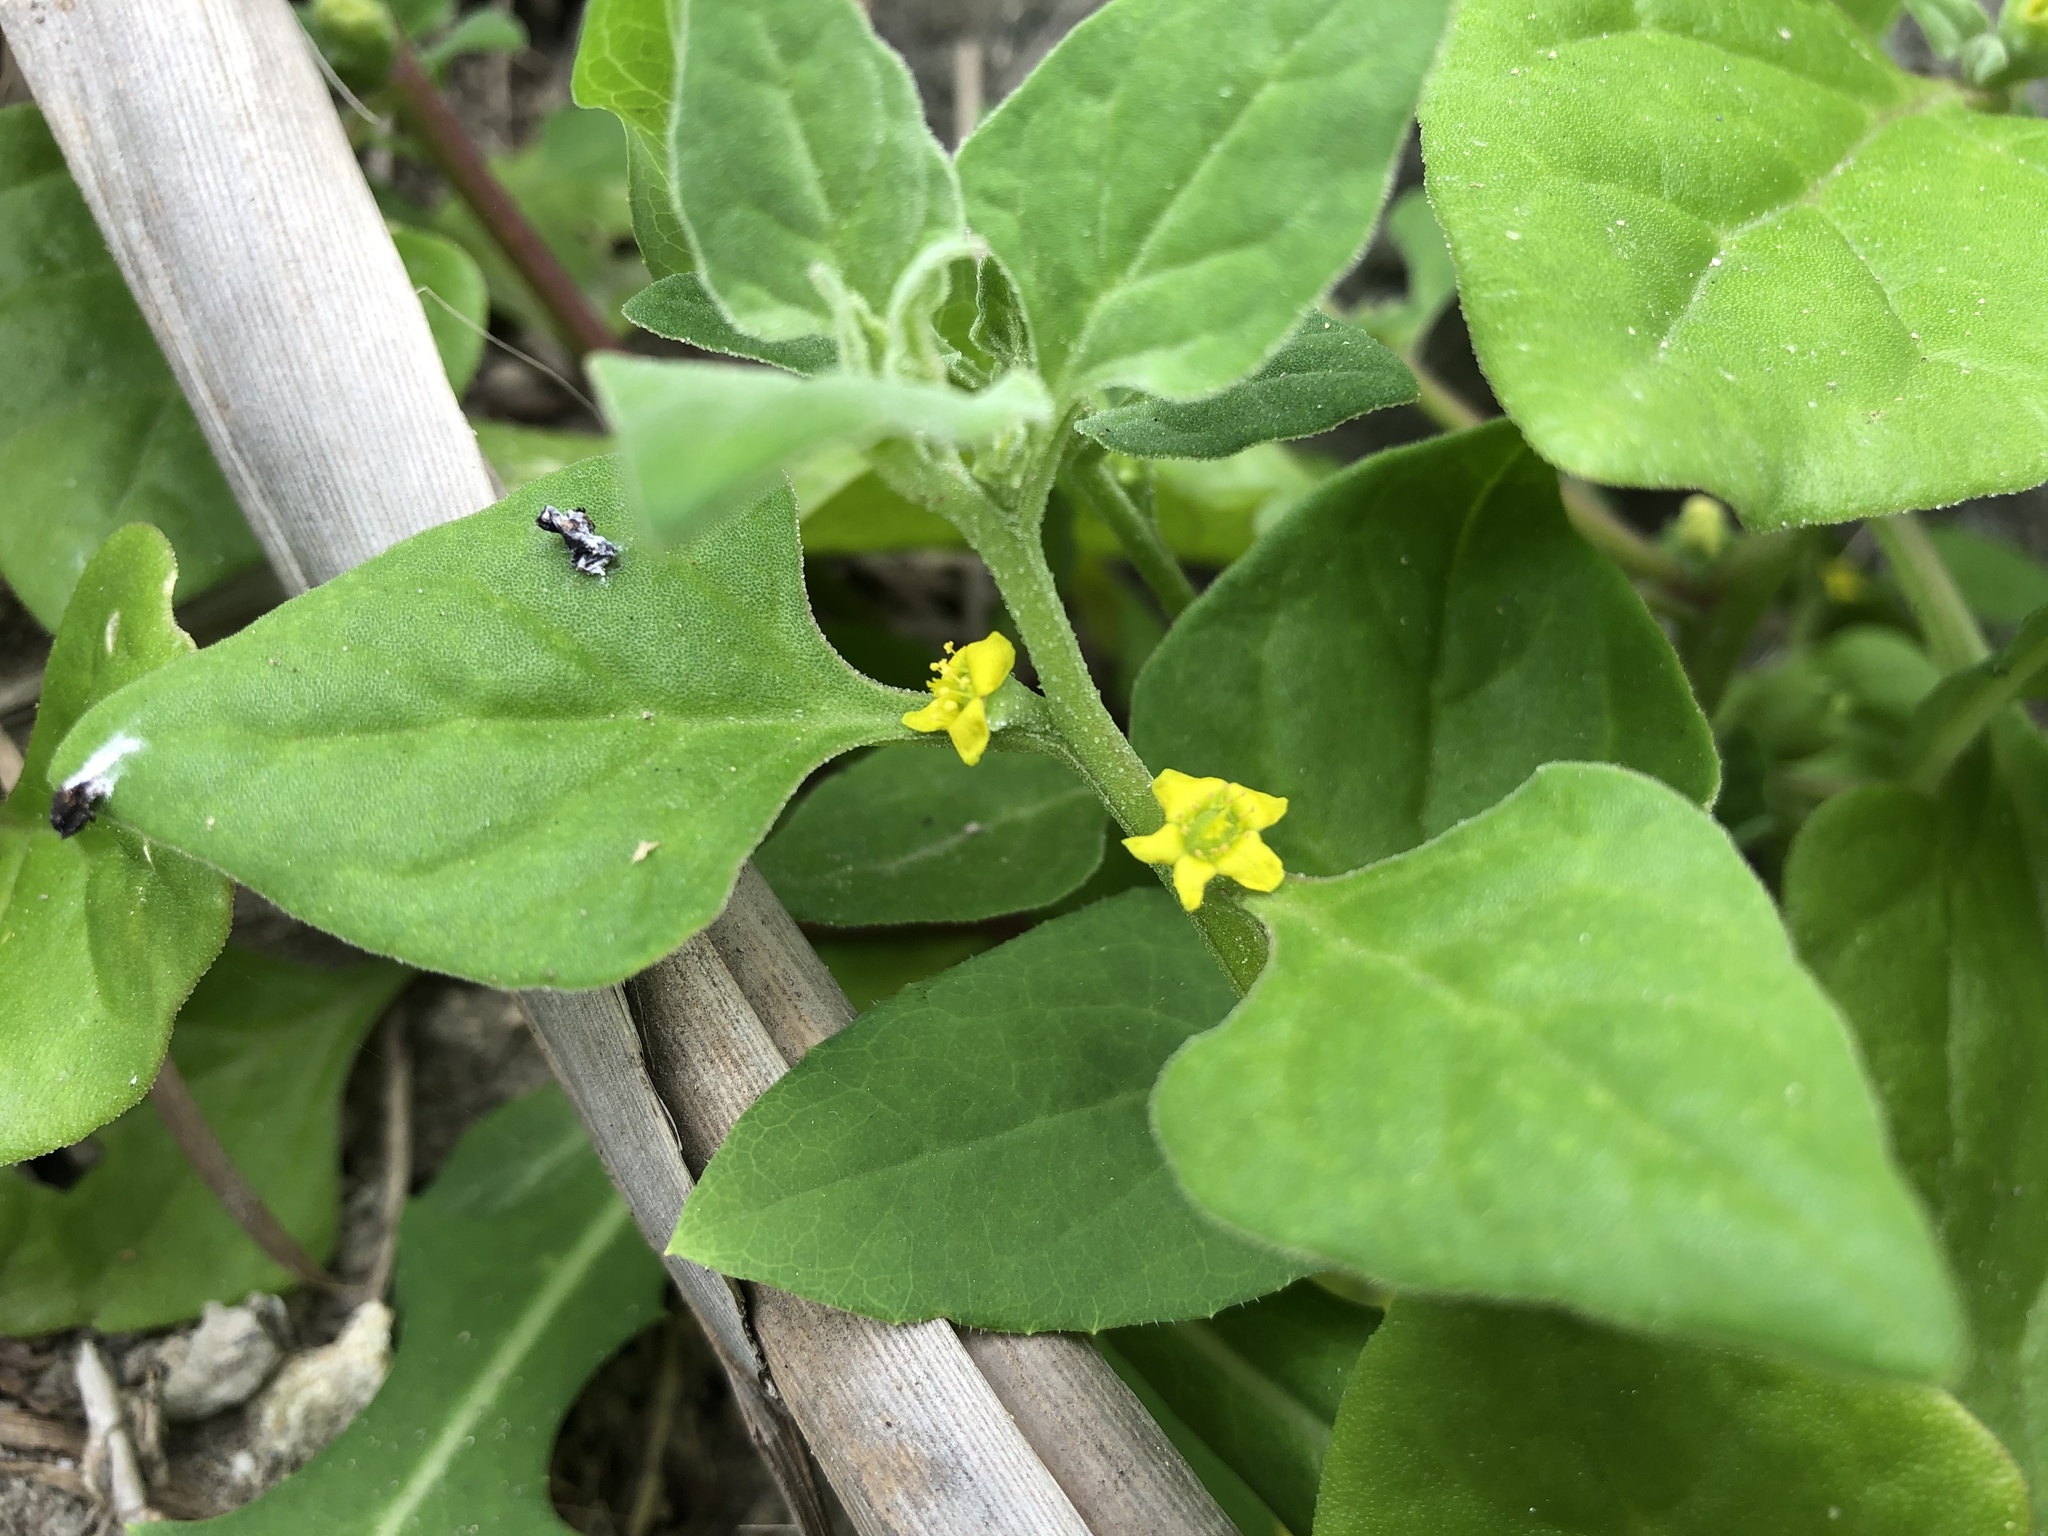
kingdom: Plantae
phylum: Tracheophyta
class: Magnoliopsida
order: Caryophyllales
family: Aizoaceae
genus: Tetragonia
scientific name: Tetragonia tetragonoides
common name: New zealand-spinach
